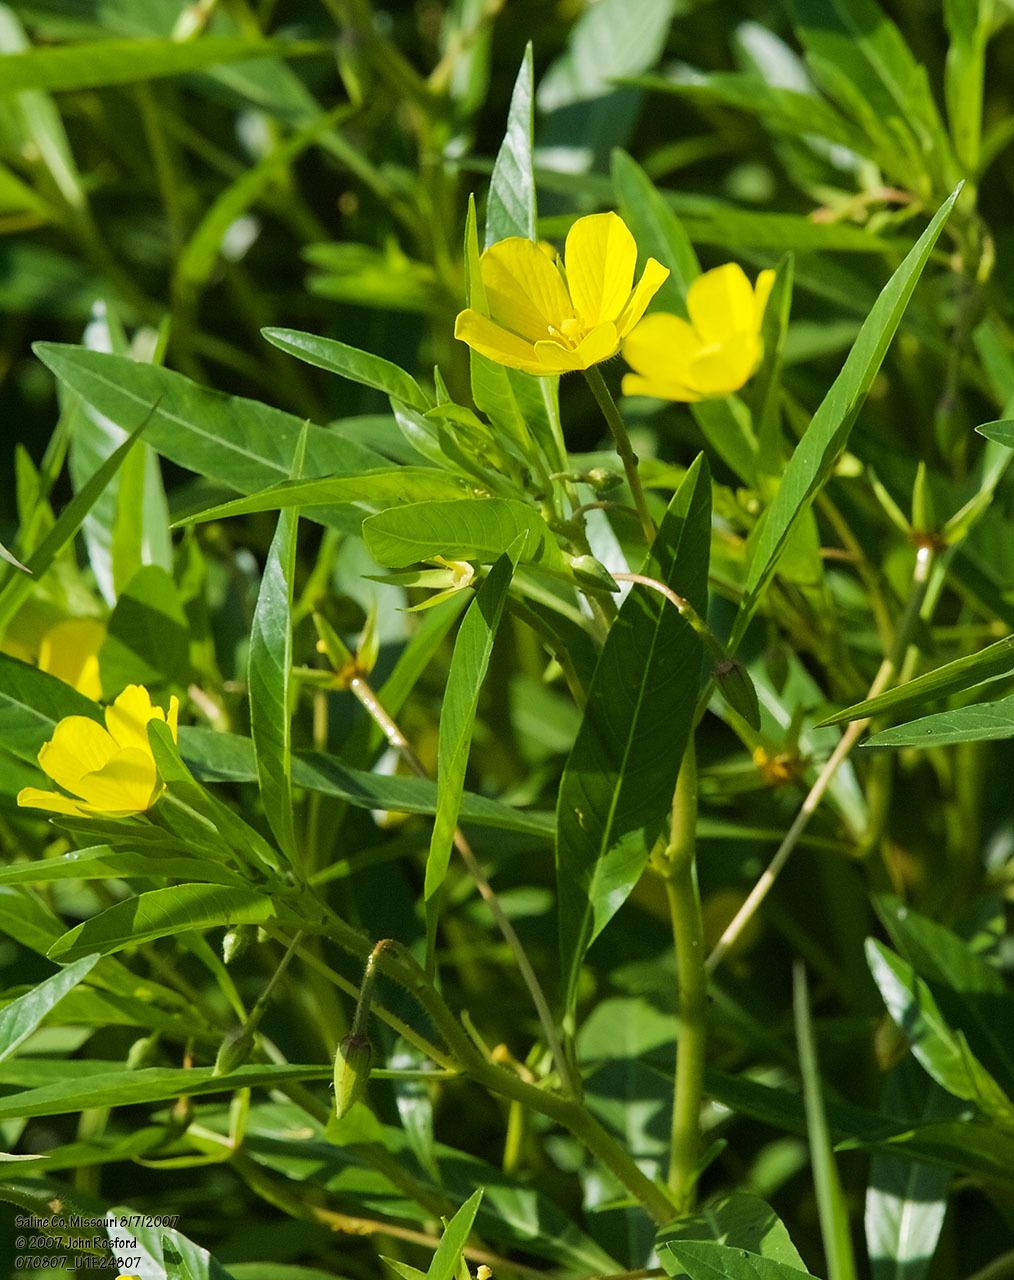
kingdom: Plantae
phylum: Tracheophyta
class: Magnoliopsida
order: Myrtales
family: Onagraceae
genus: Ludwigia
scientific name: Ludwigia peploides
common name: Floating primrose-willow
